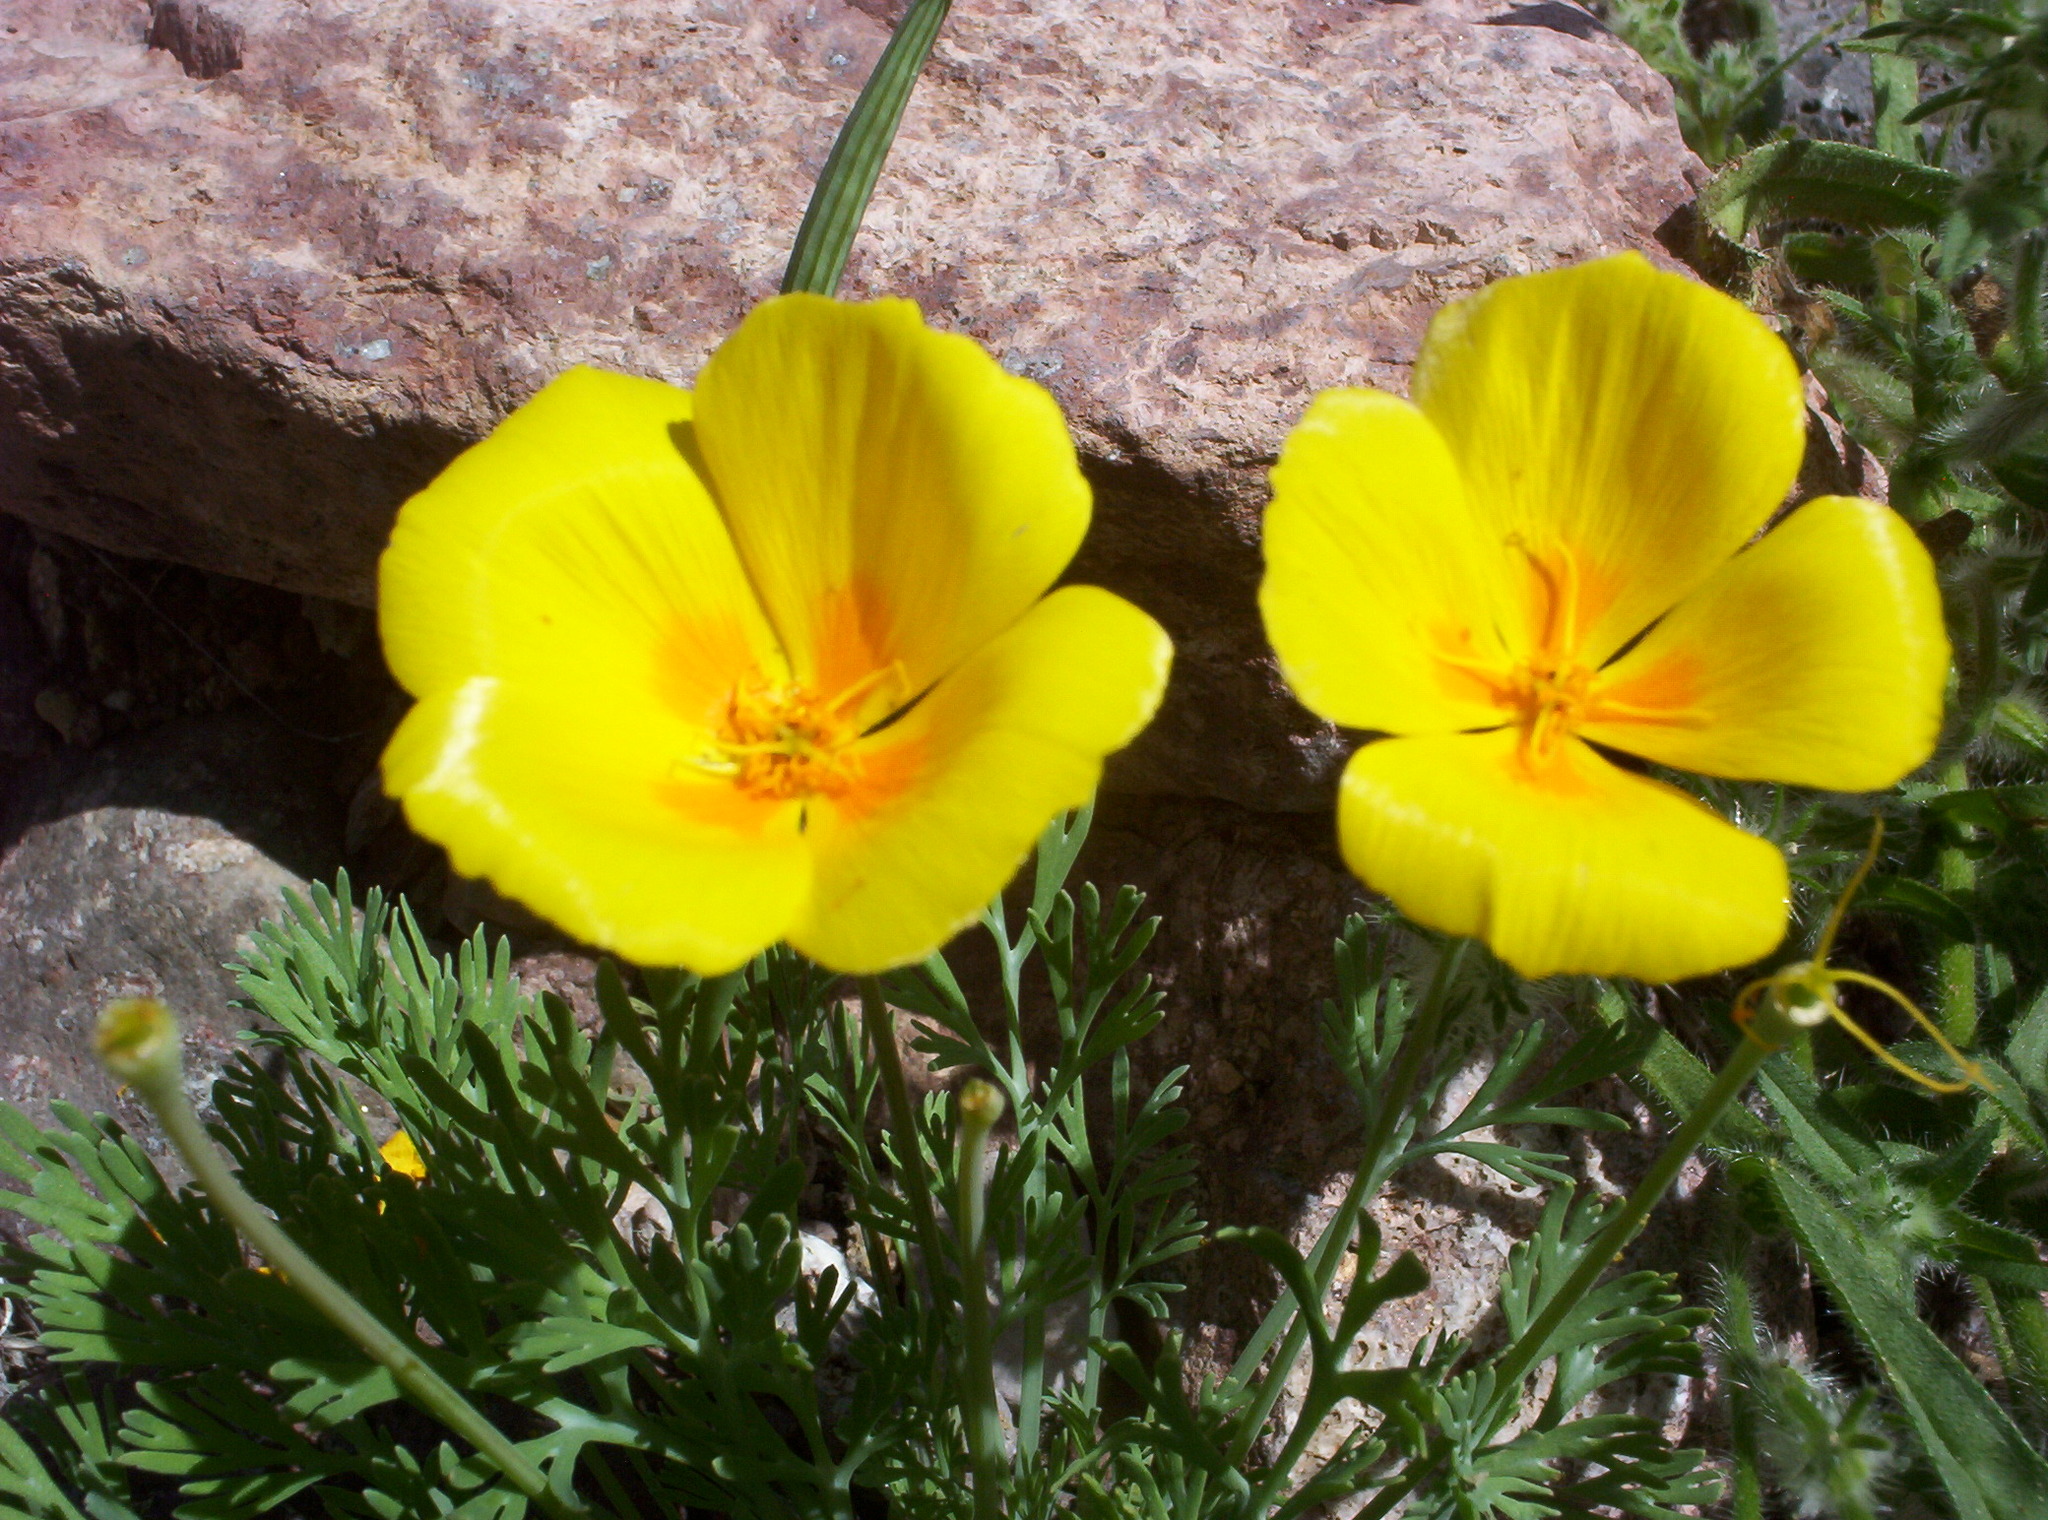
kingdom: Plantae
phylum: Tracheophyta
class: Magnoliopsida
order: Ranunculales
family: Papaveraceae
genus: Eschscholzia
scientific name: Eschscholzia californica
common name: California poppy
